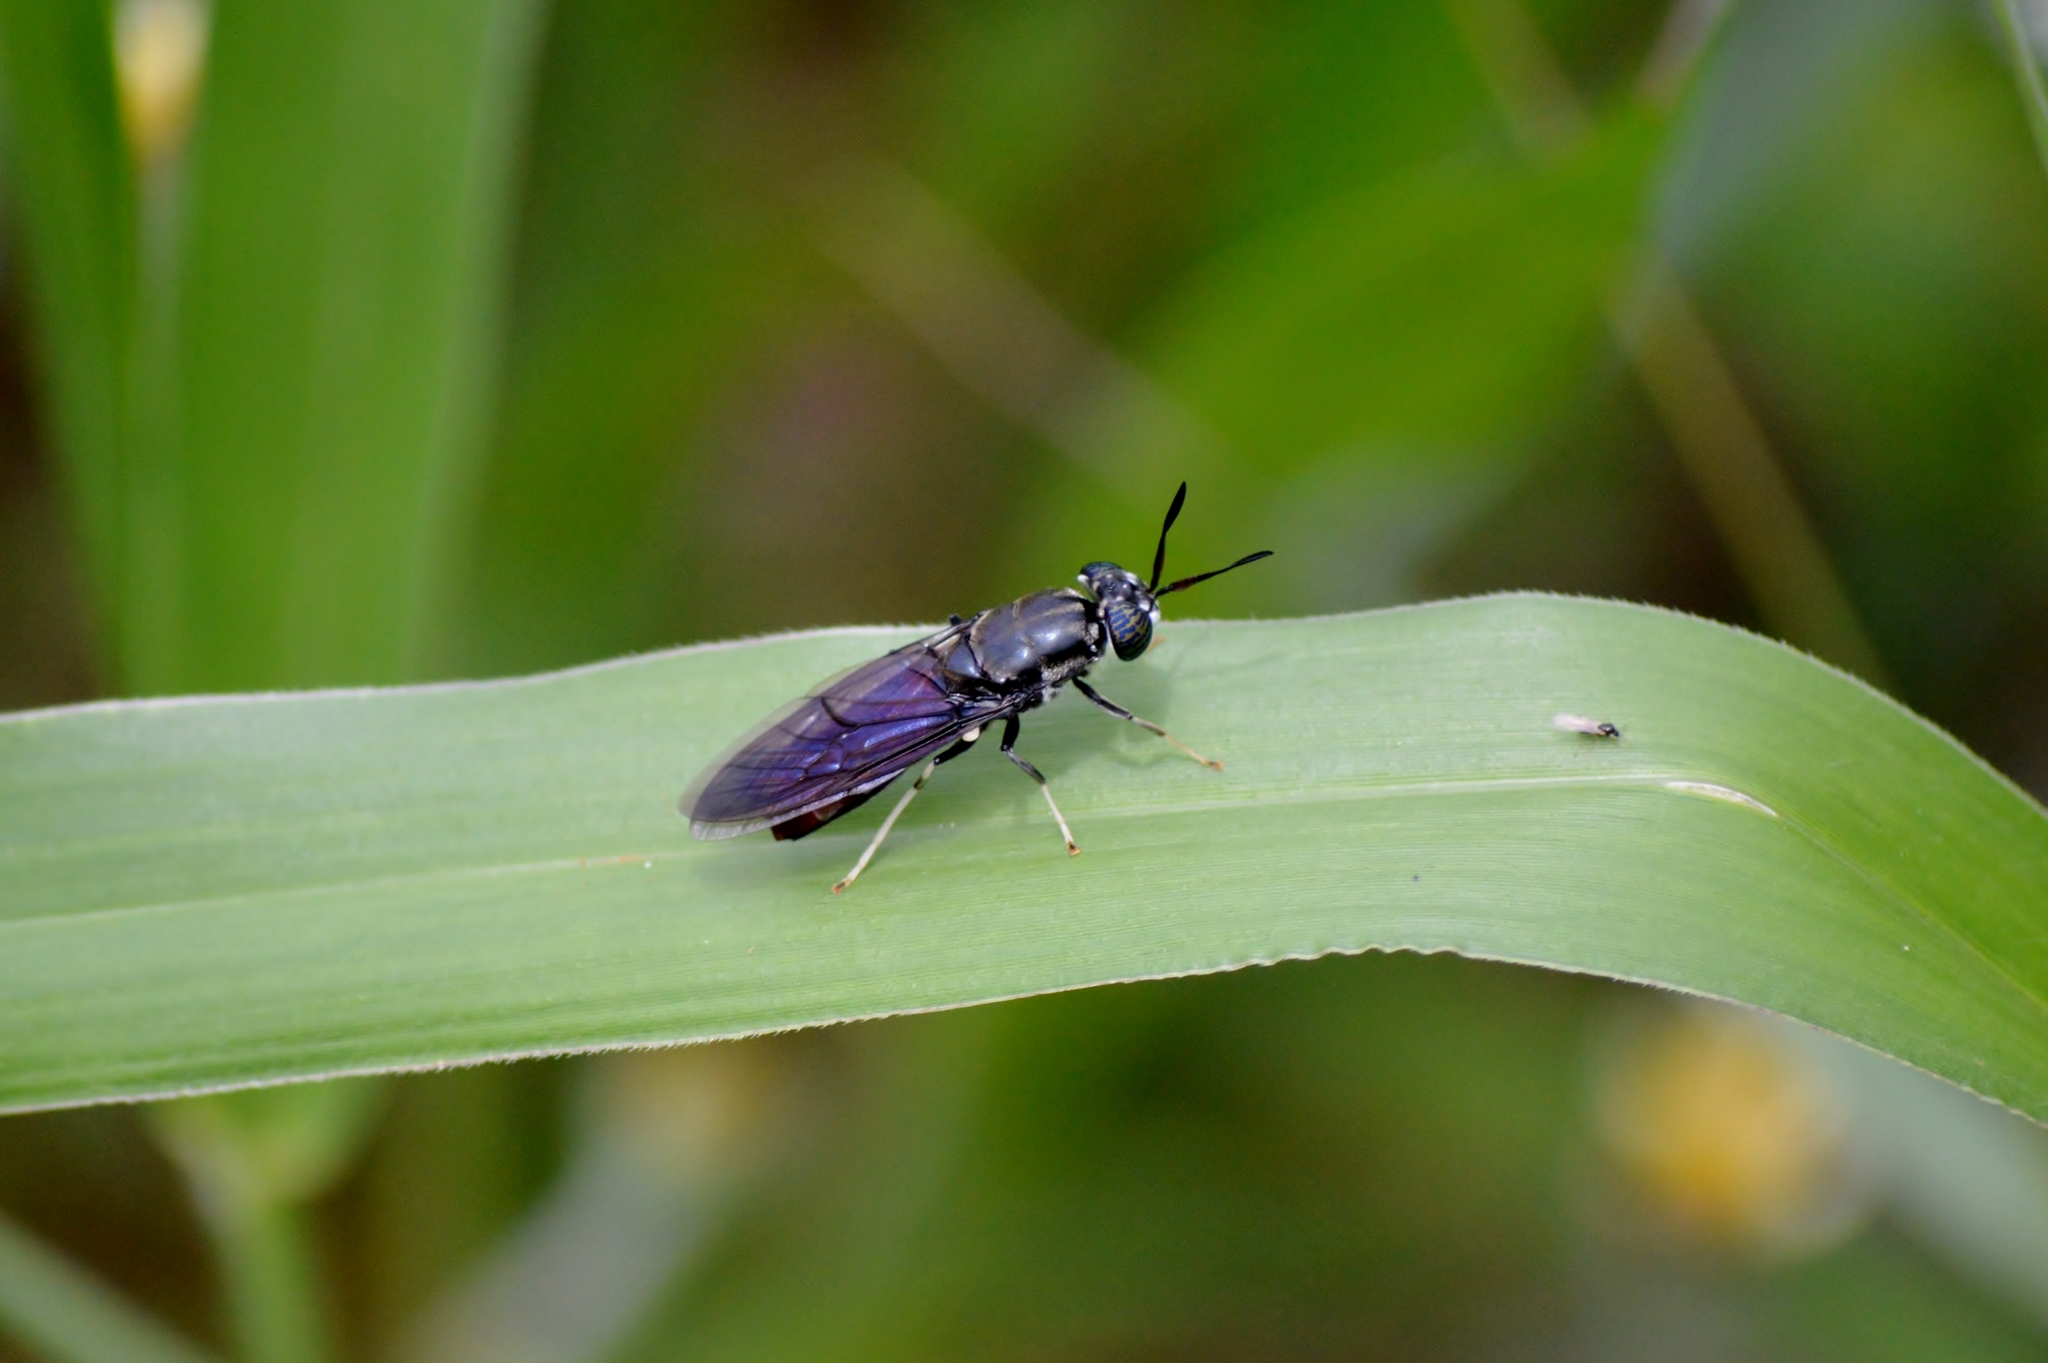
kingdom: Animalia
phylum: Arthropoda
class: Insecta
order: Diptera
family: Stratiomyidae
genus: Hermetia
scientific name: Hermetia illucens
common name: Black soldier fly
